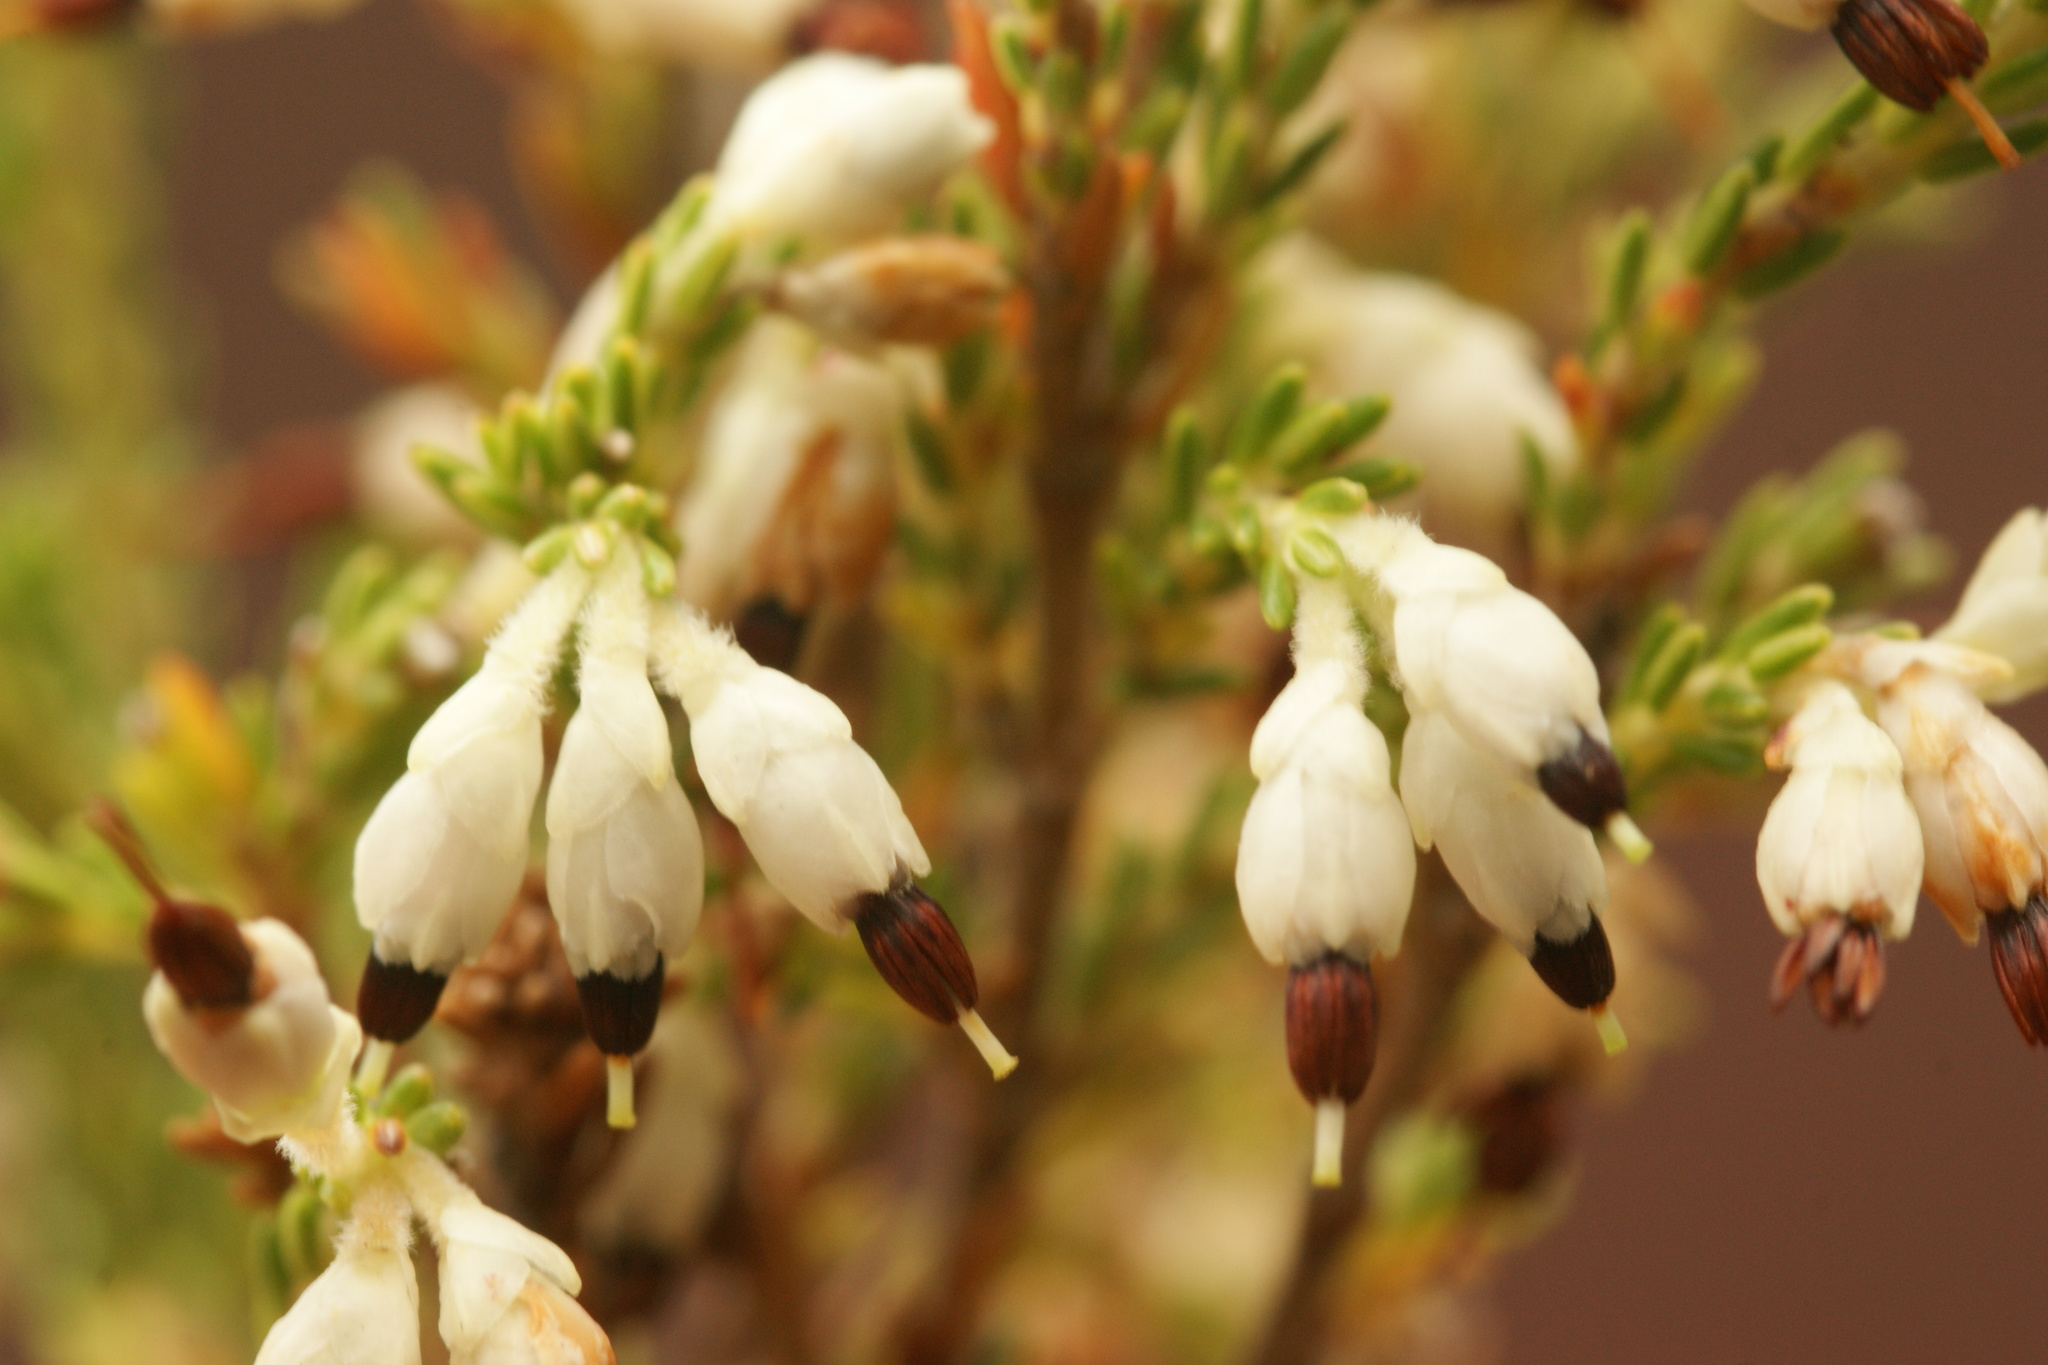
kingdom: Plantae
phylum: Tracheophyta
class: Magnoliopsida
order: Ericales
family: Ericaceae
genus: Erica
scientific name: Erica imbricata
